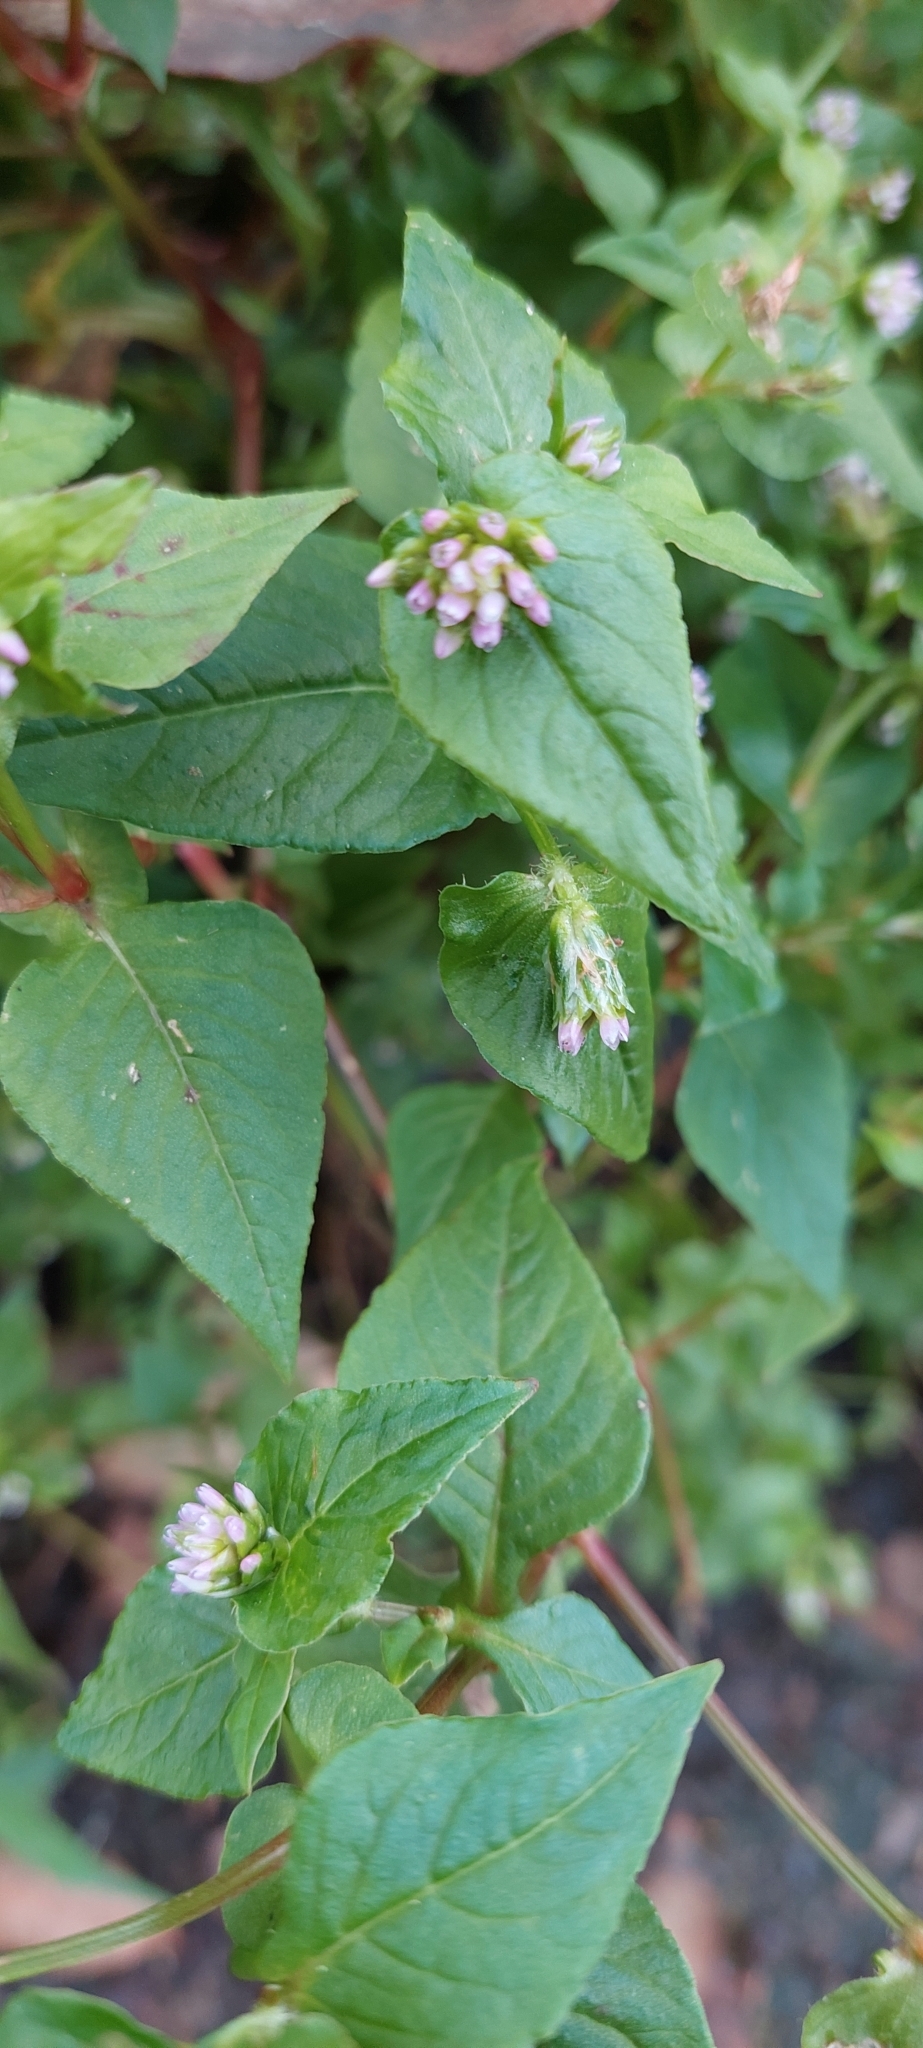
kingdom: Plantae
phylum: Tracheophyta
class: Magnoliopsida
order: Caryophyllales
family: Polygonaceae
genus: Persicaria
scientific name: Persicaria nepalensis
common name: Nepal persicaria
